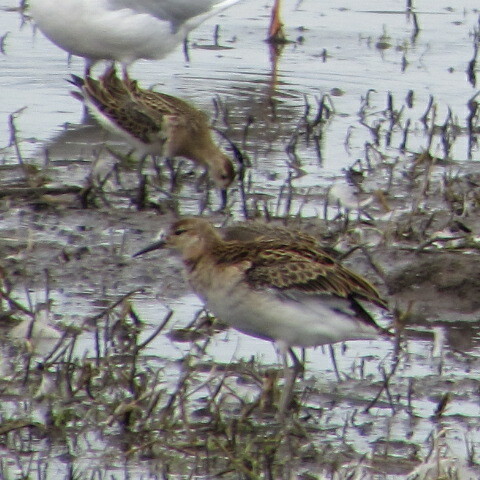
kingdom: Animalia
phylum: Chordata
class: Aves
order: Charadriiformes
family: Scolopacidae
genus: Calidris
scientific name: Calidris pugnax
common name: Ruff
